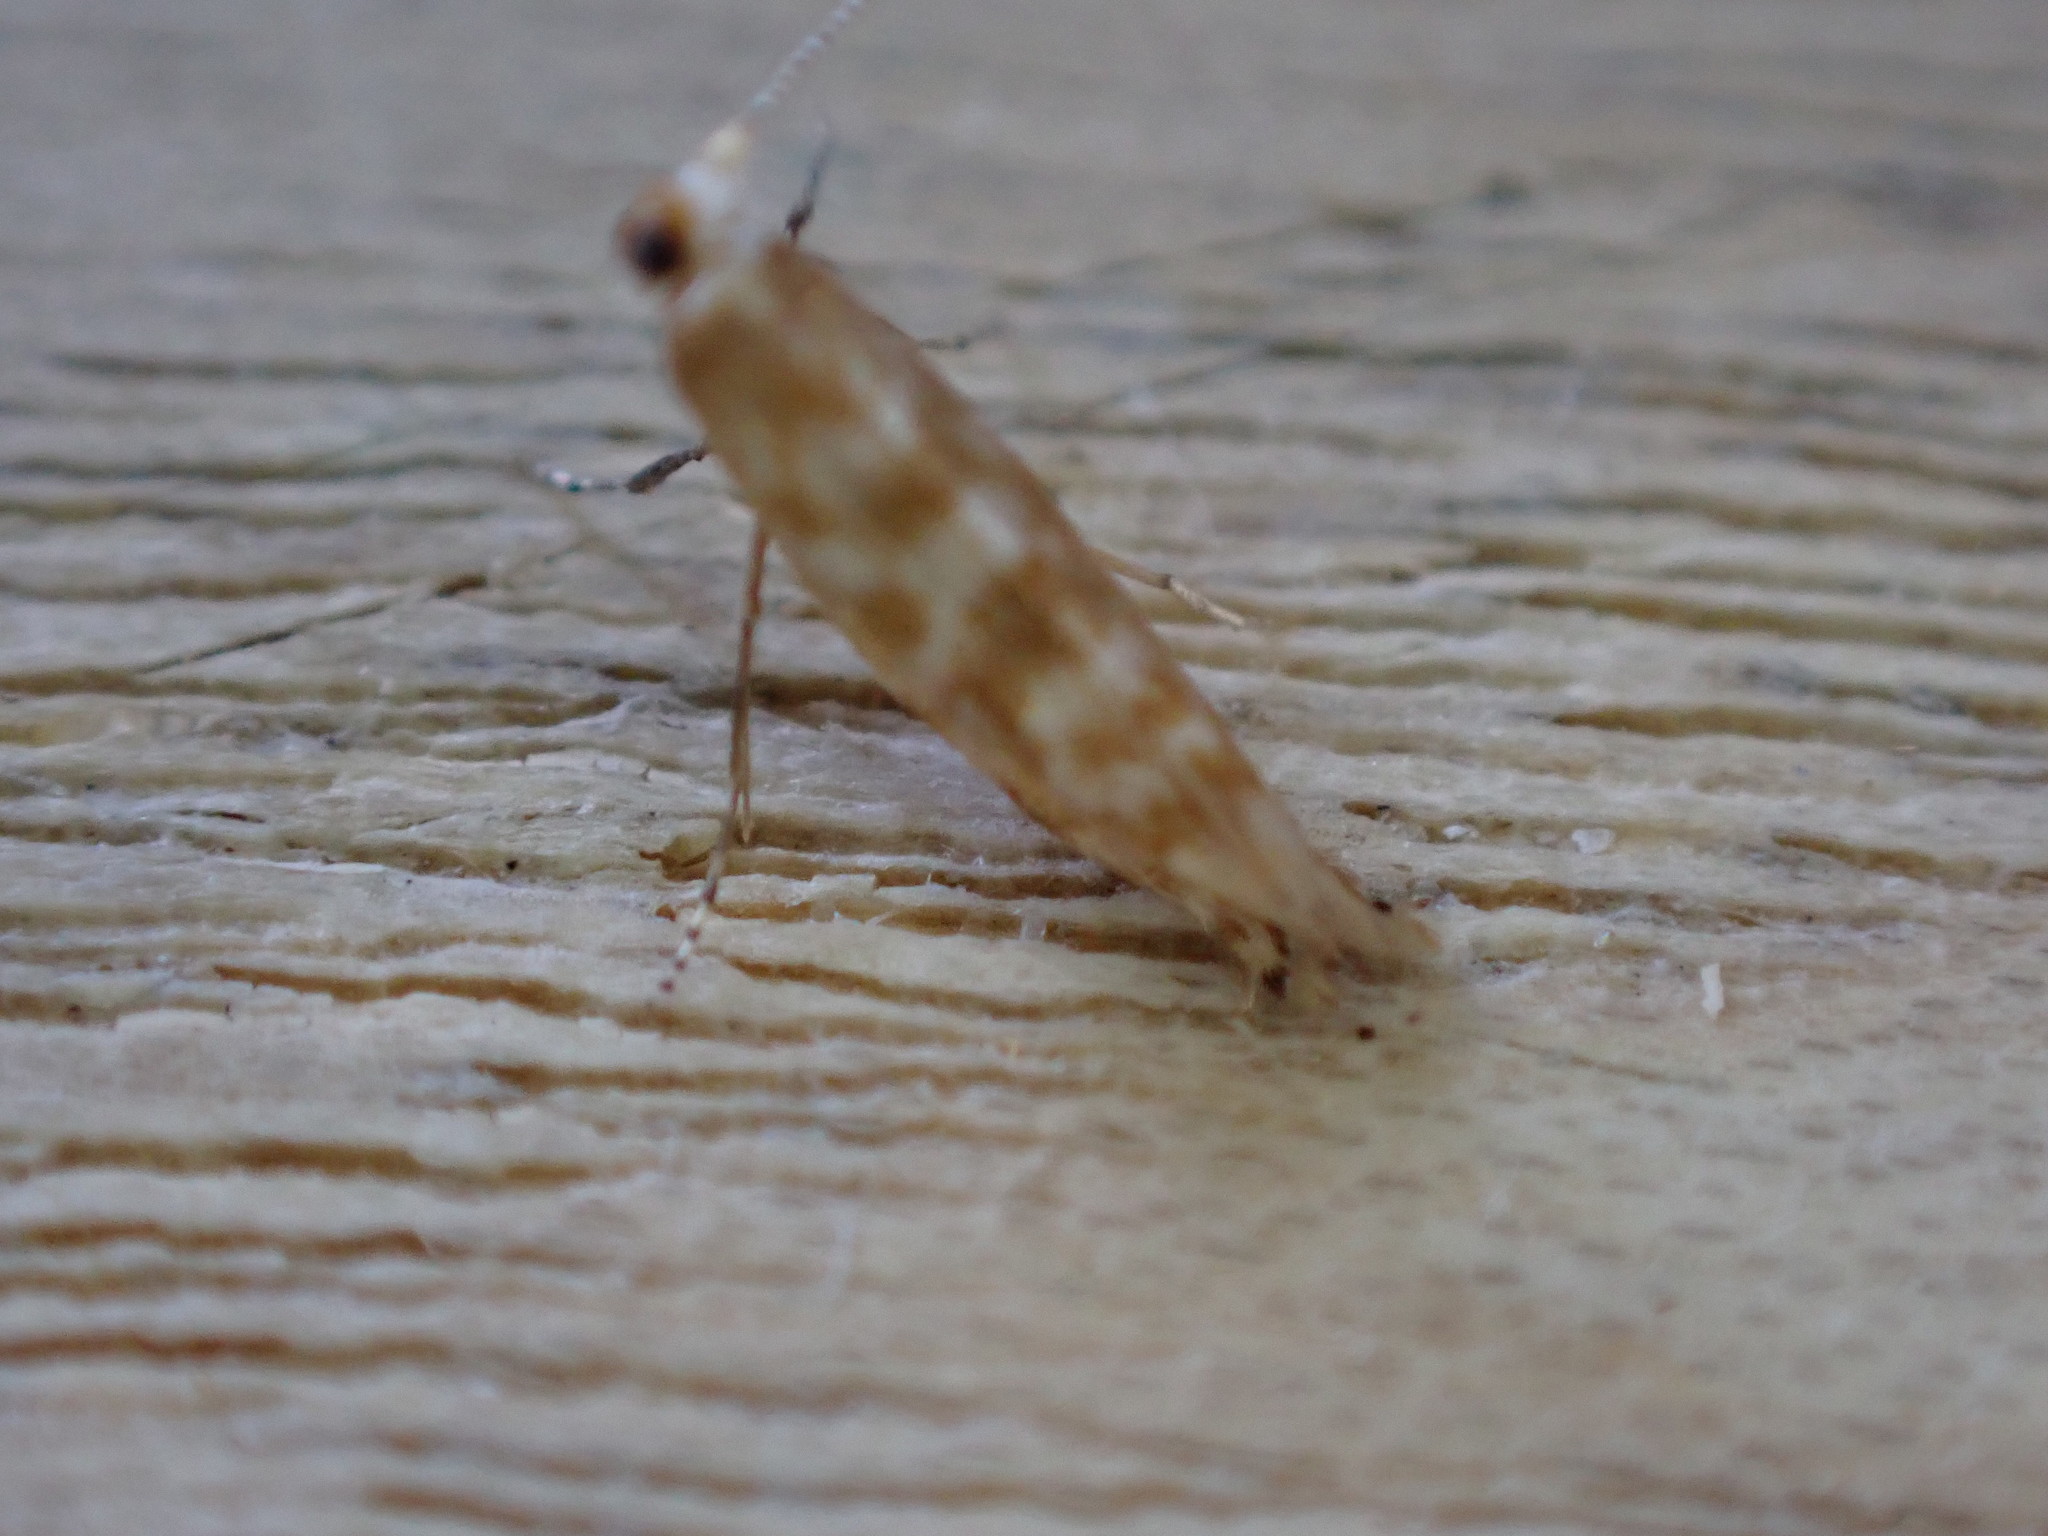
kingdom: Animalia
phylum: Arthropoda
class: Insecta
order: Lepidoptera
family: Argyresthiidae
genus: Argyresthia
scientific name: Argyresthia cupressella
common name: Cypress tip moth
